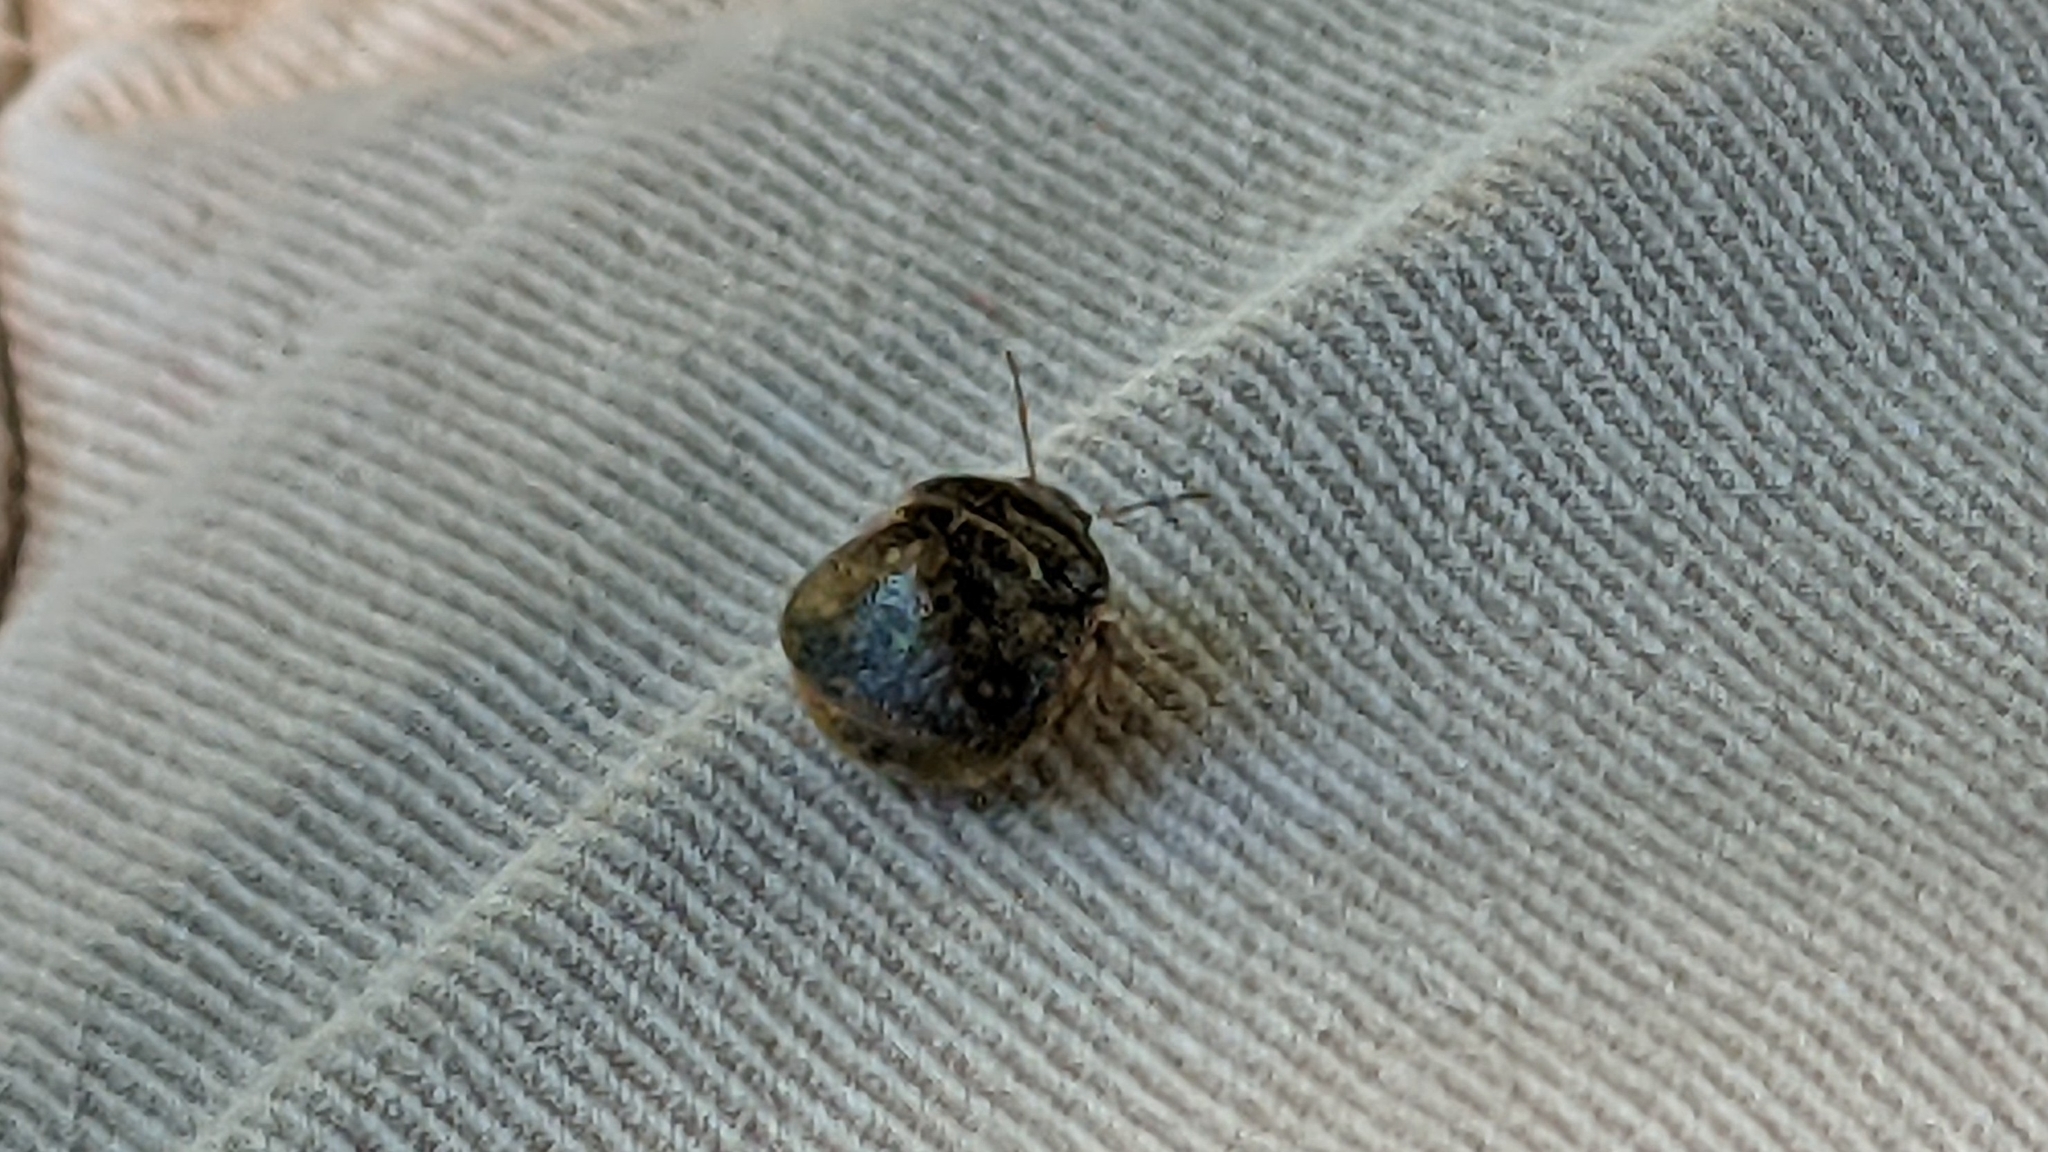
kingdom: Animalia
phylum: Arthropoda
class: Insecta
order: Hemiptera
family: Plataspidae
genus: Megacopta
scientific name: Megacopta cribraria
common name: Bean plataspid
